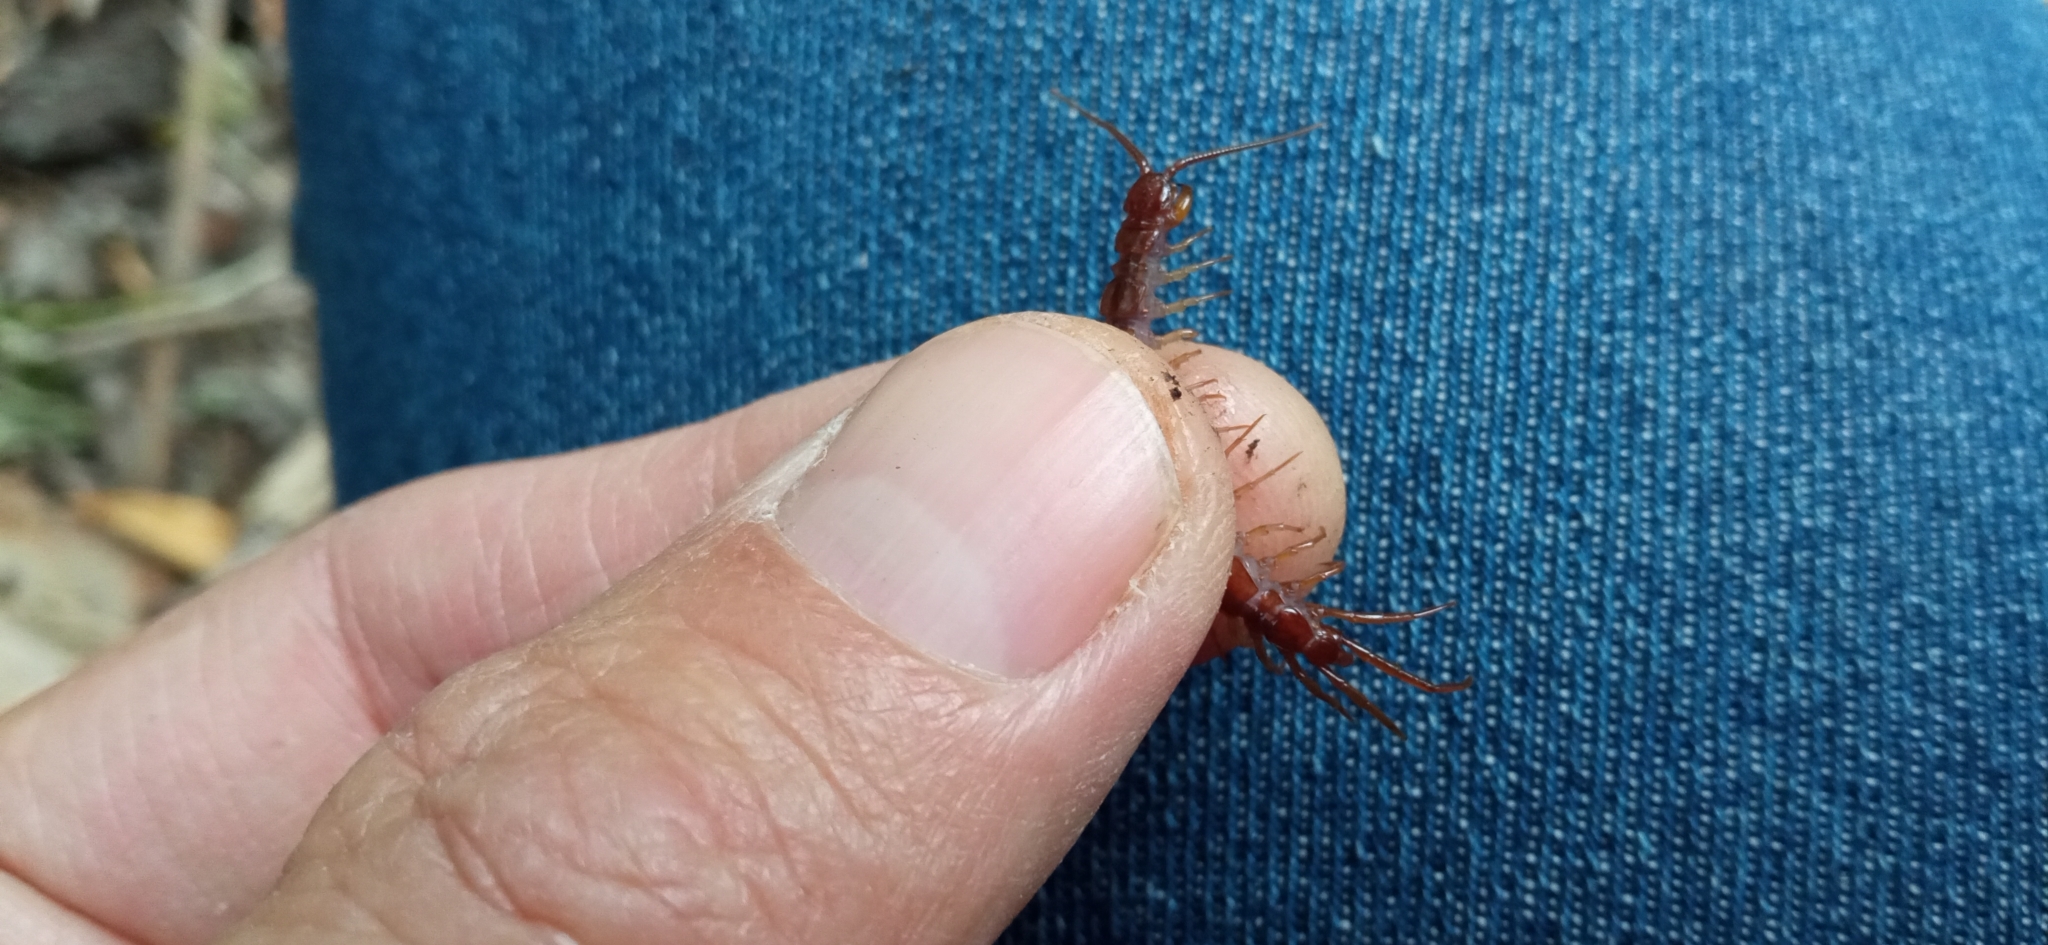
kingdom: Animalia
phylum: Arthropoda
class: Chilopoda
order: Lithobiomorpha
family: Lithobiidae
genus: Lithobius
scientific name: Lithobius forficatus
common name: Centipede
